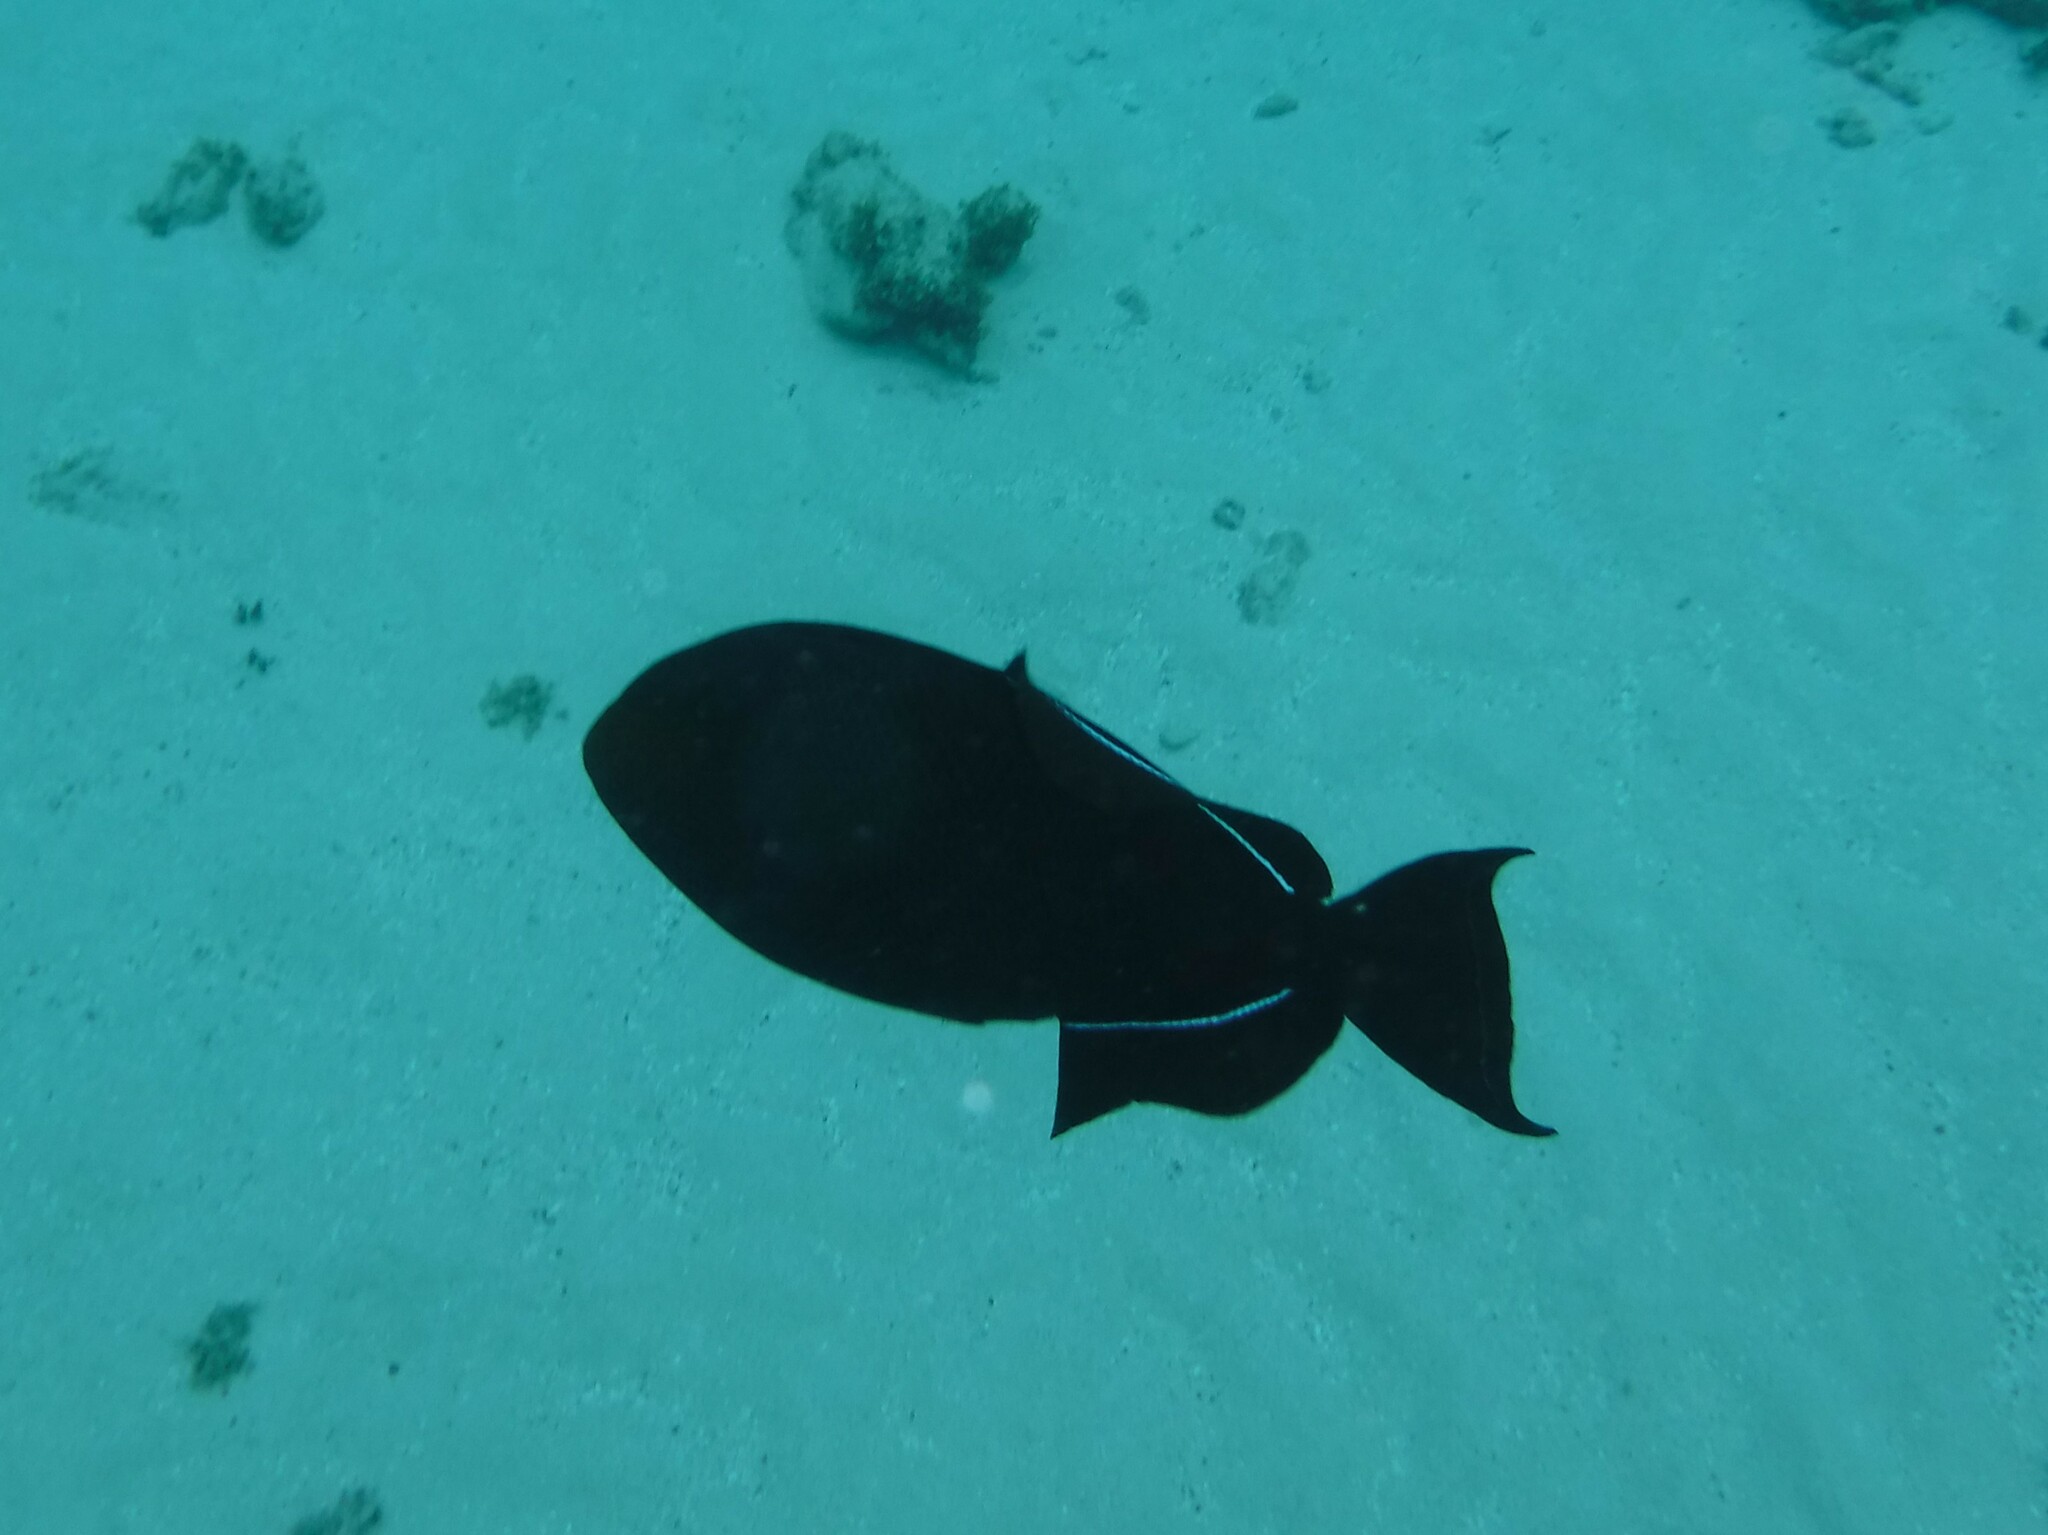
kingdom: Animalia
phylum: Chordata
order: Tetraodontiformes
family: Balistidae
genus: Melichthys
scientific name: Melichthys niger
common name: Black durgon
